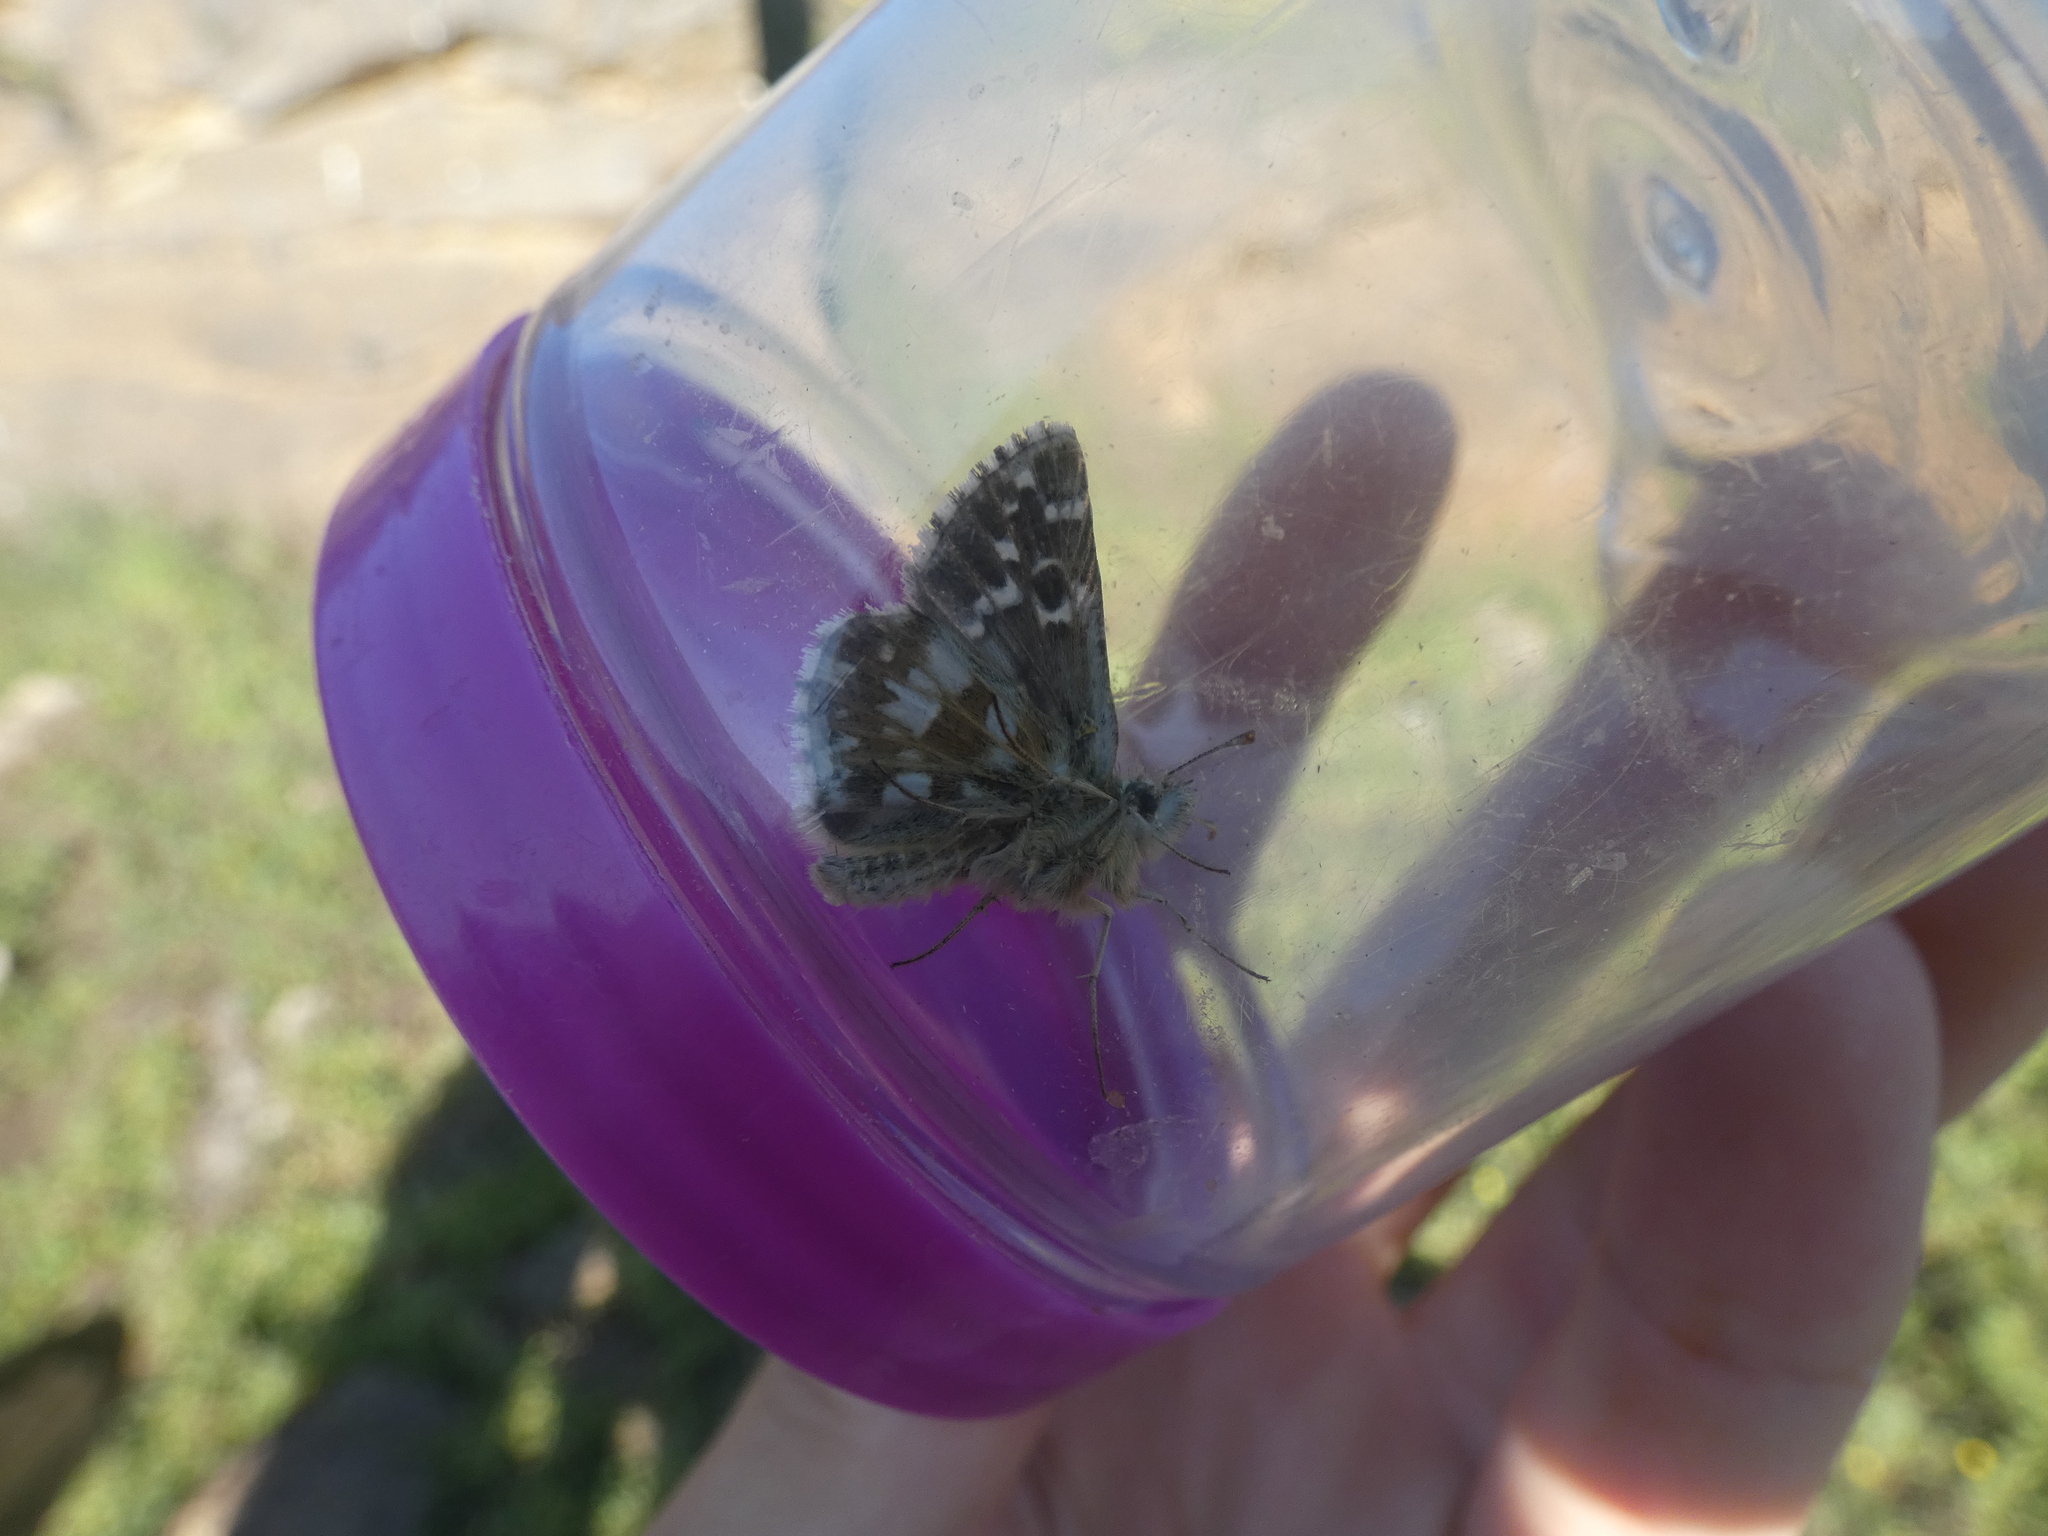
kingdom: Animalia
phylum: Arthropoda
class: Insecta
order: Lepidoptera
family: Hesperiidae
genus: Pyrgus
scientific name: Pyrgus armoricanus
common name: Oberthür's grizzled skipper
